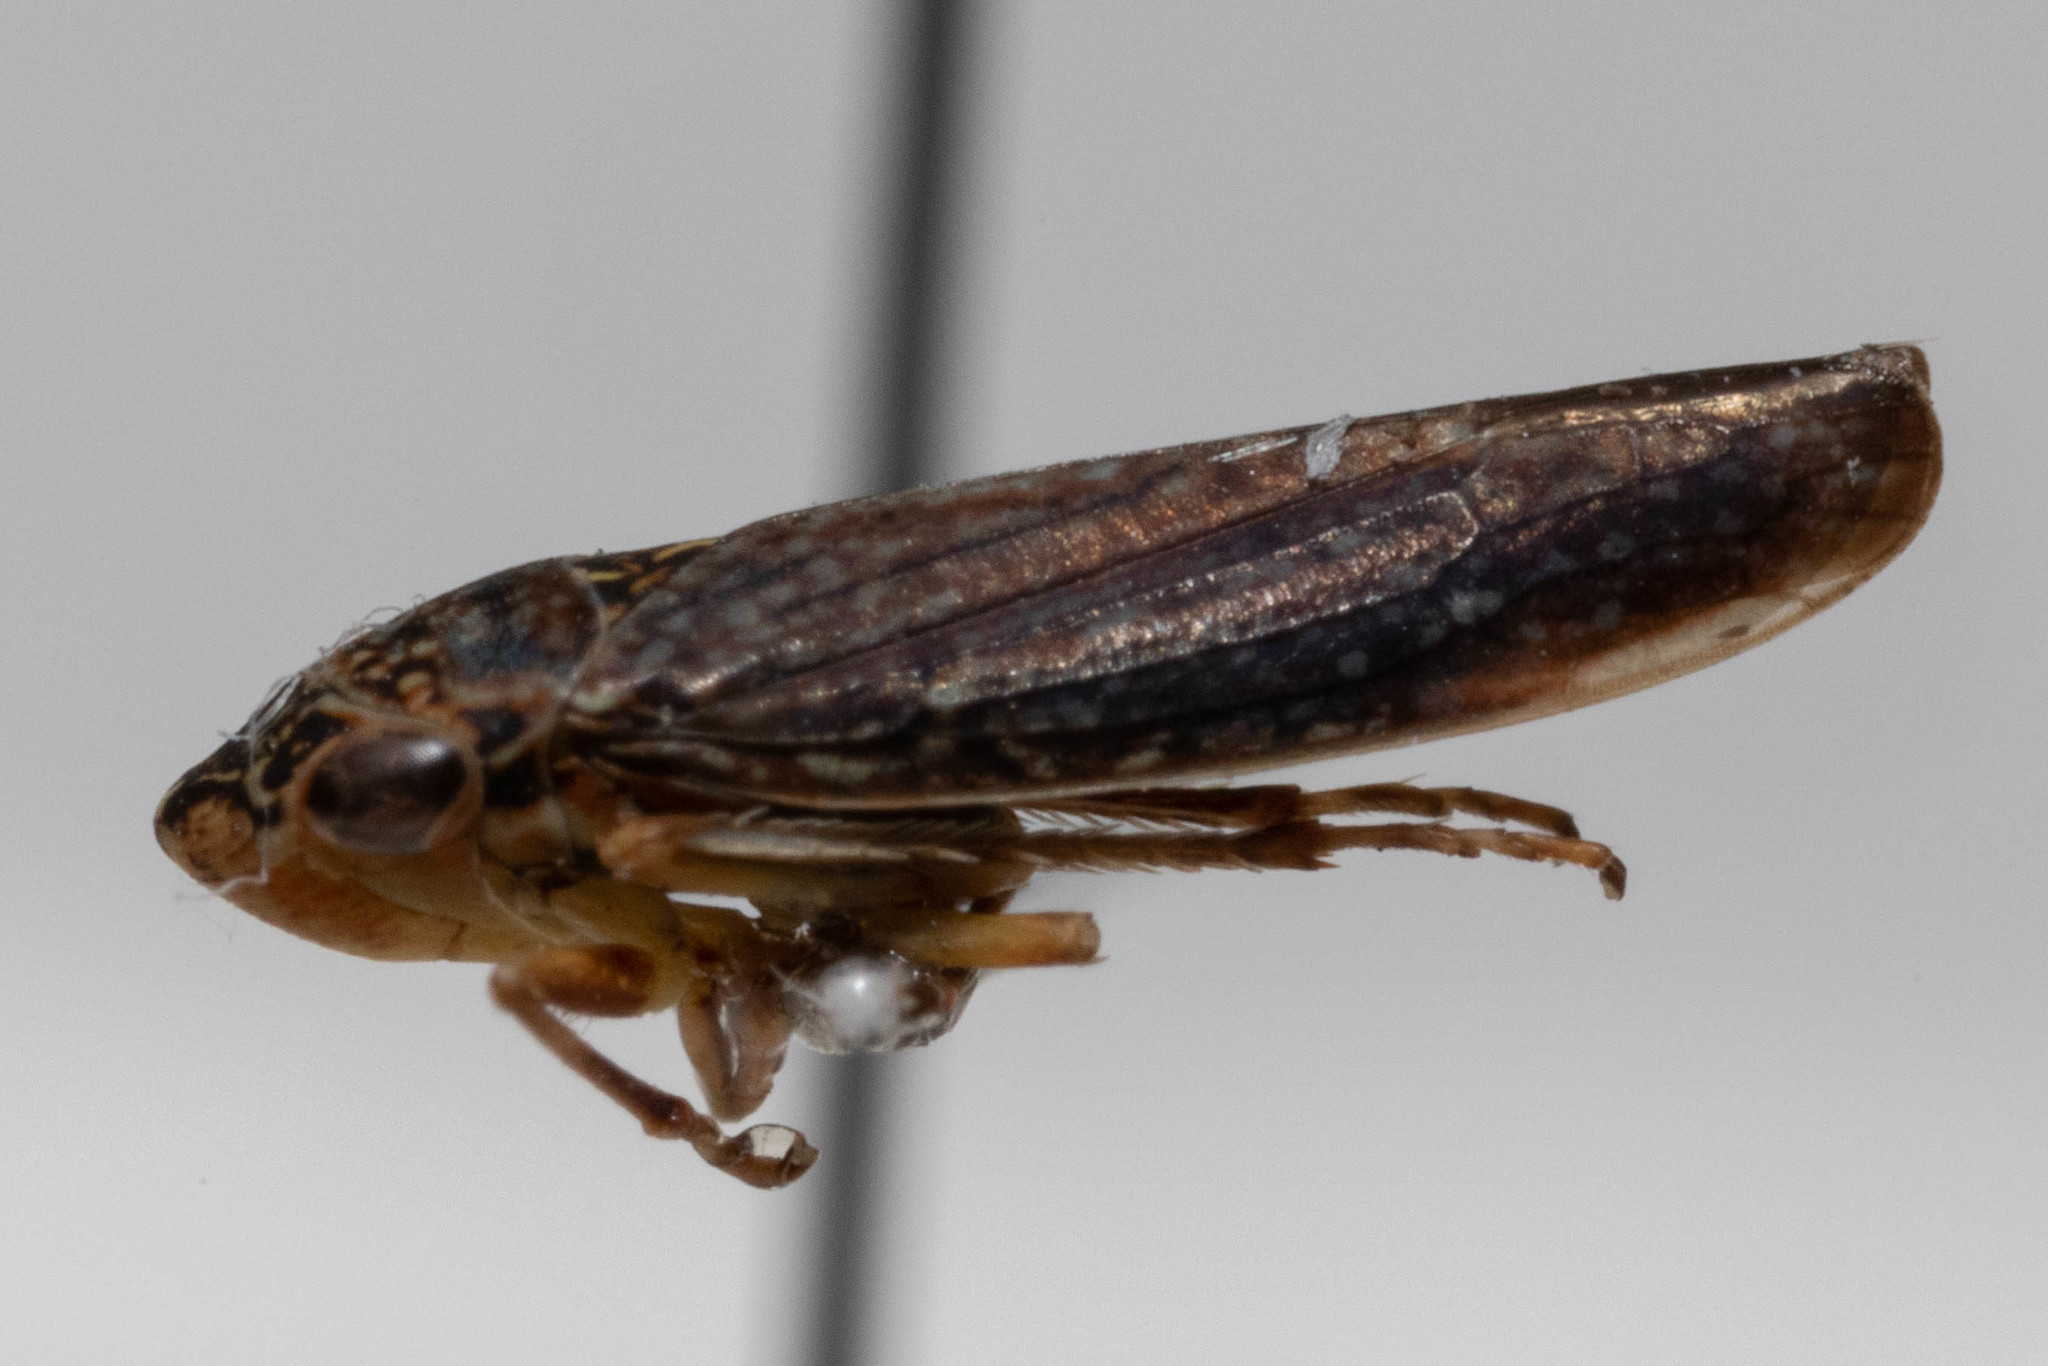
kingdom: Animalia
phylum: Arthropoda
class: Insecta
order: Hemiptera
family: Cicadellidae
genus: Graphocephala
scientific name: Graphocephala confluens
